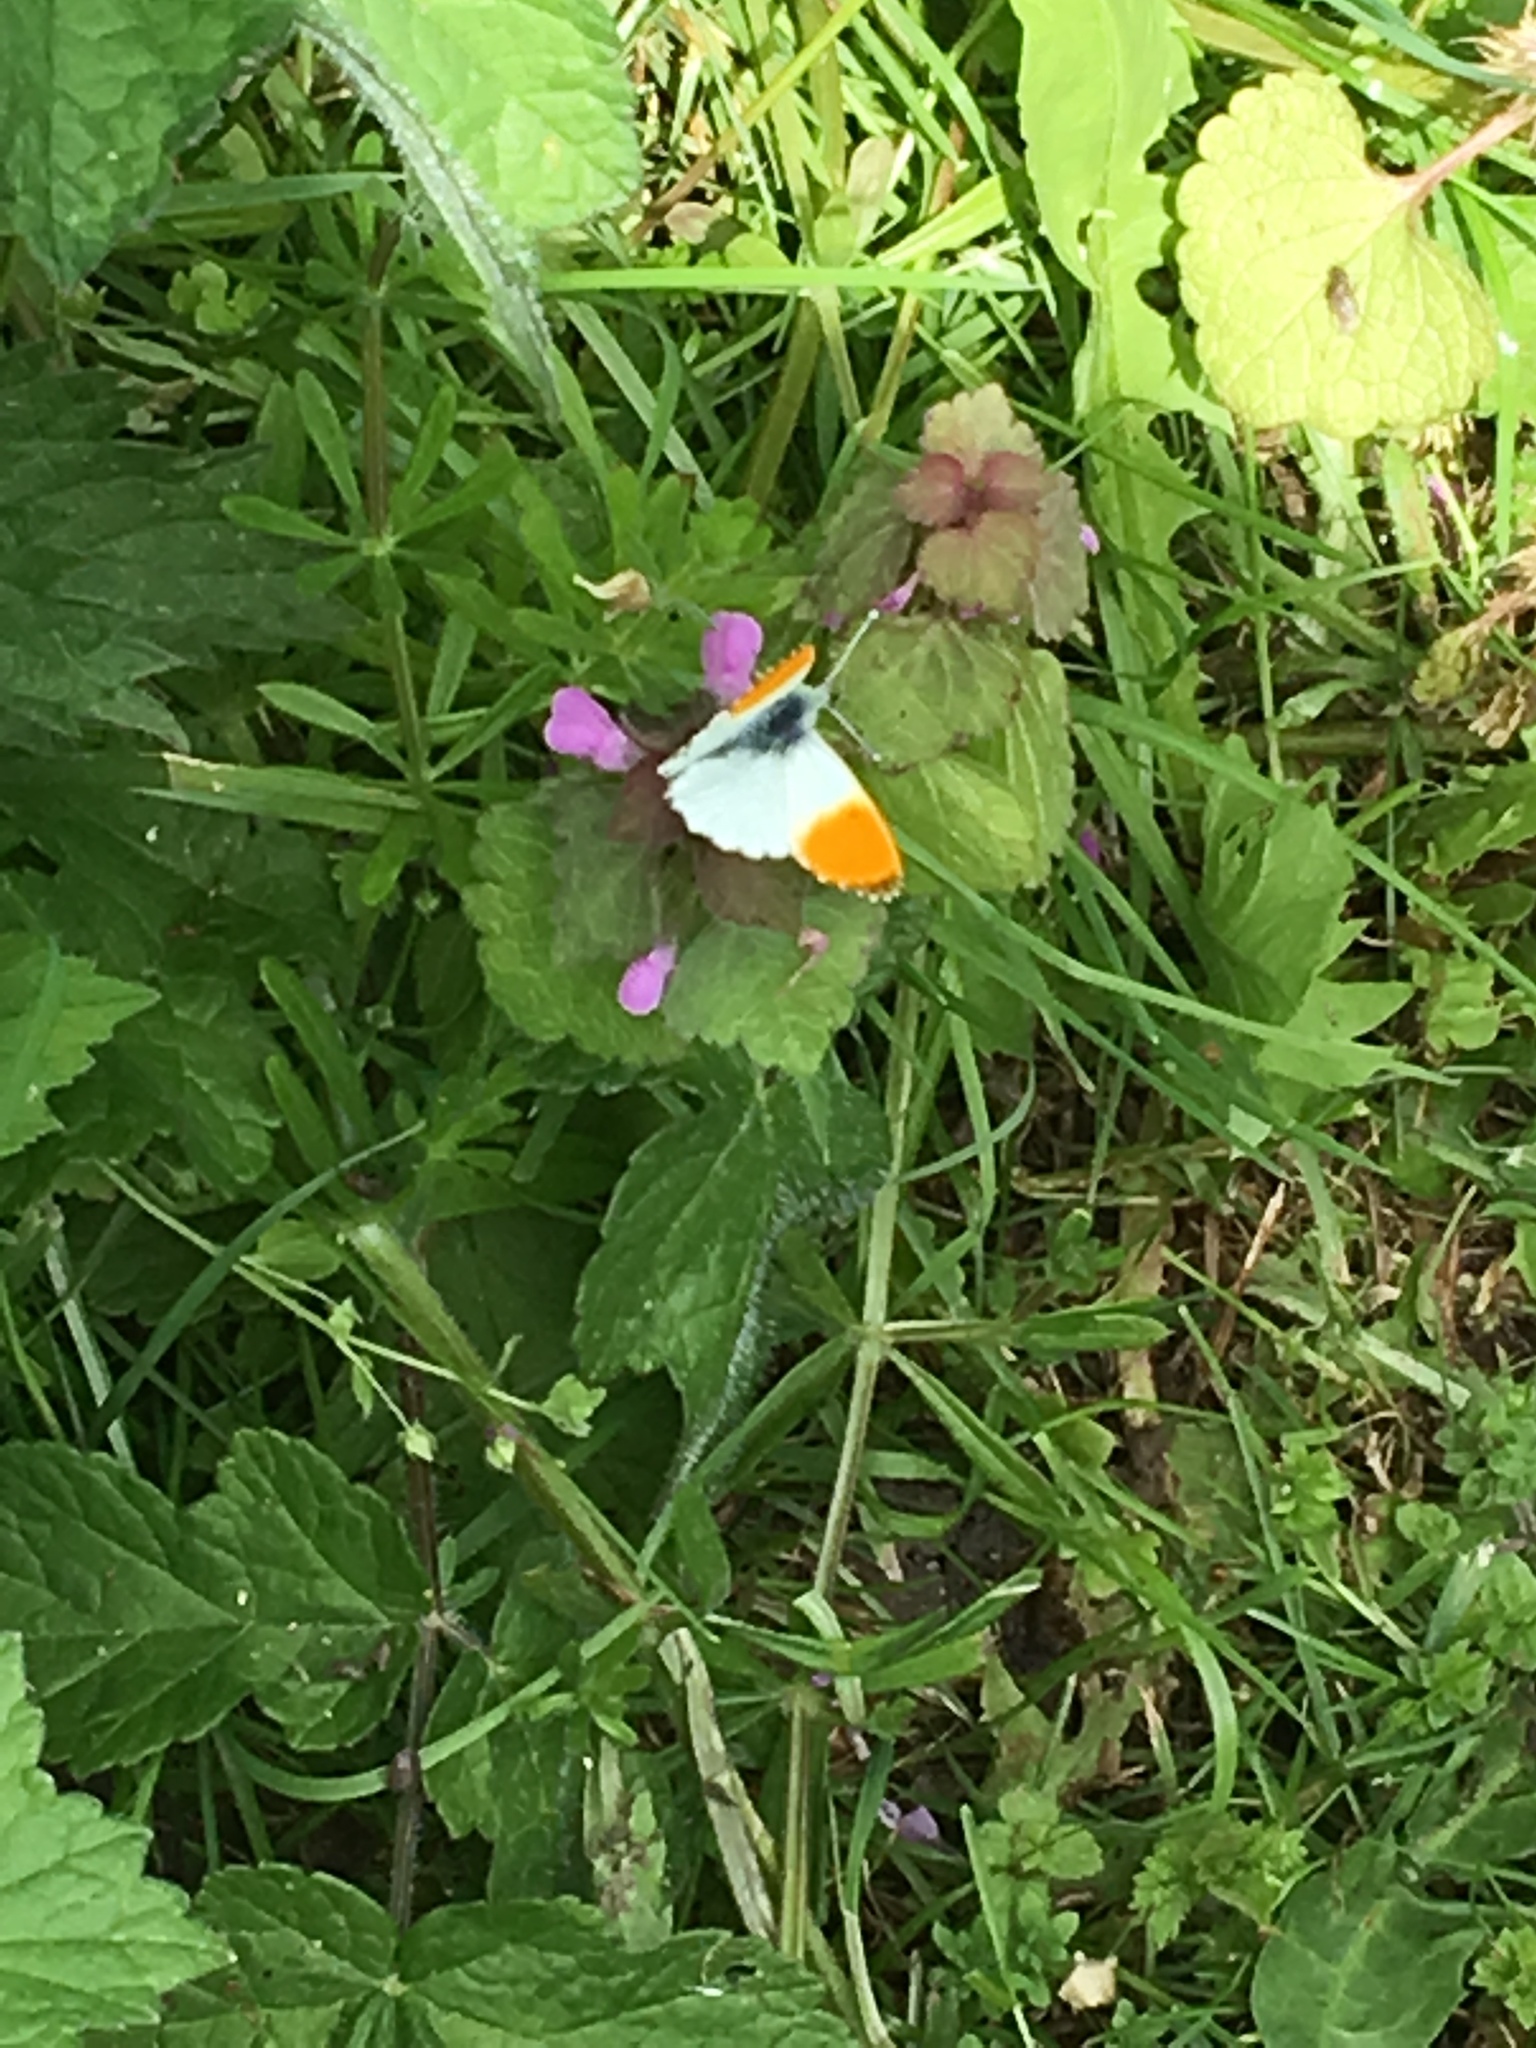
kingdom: Animalia
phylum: Arthropoda
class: Insecta
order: Lepidoptera
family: Pieridae
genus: Anthocharis
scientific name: Anthocharis cardamines
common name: Orange-tip
